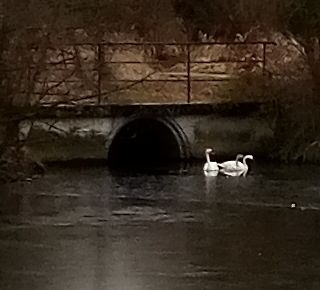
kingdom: Animalia
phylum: Chordata
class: Aves
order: Anseriformes
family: Anatidae
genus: Cygnus
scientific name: Cygnus olor
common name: Mute swan
